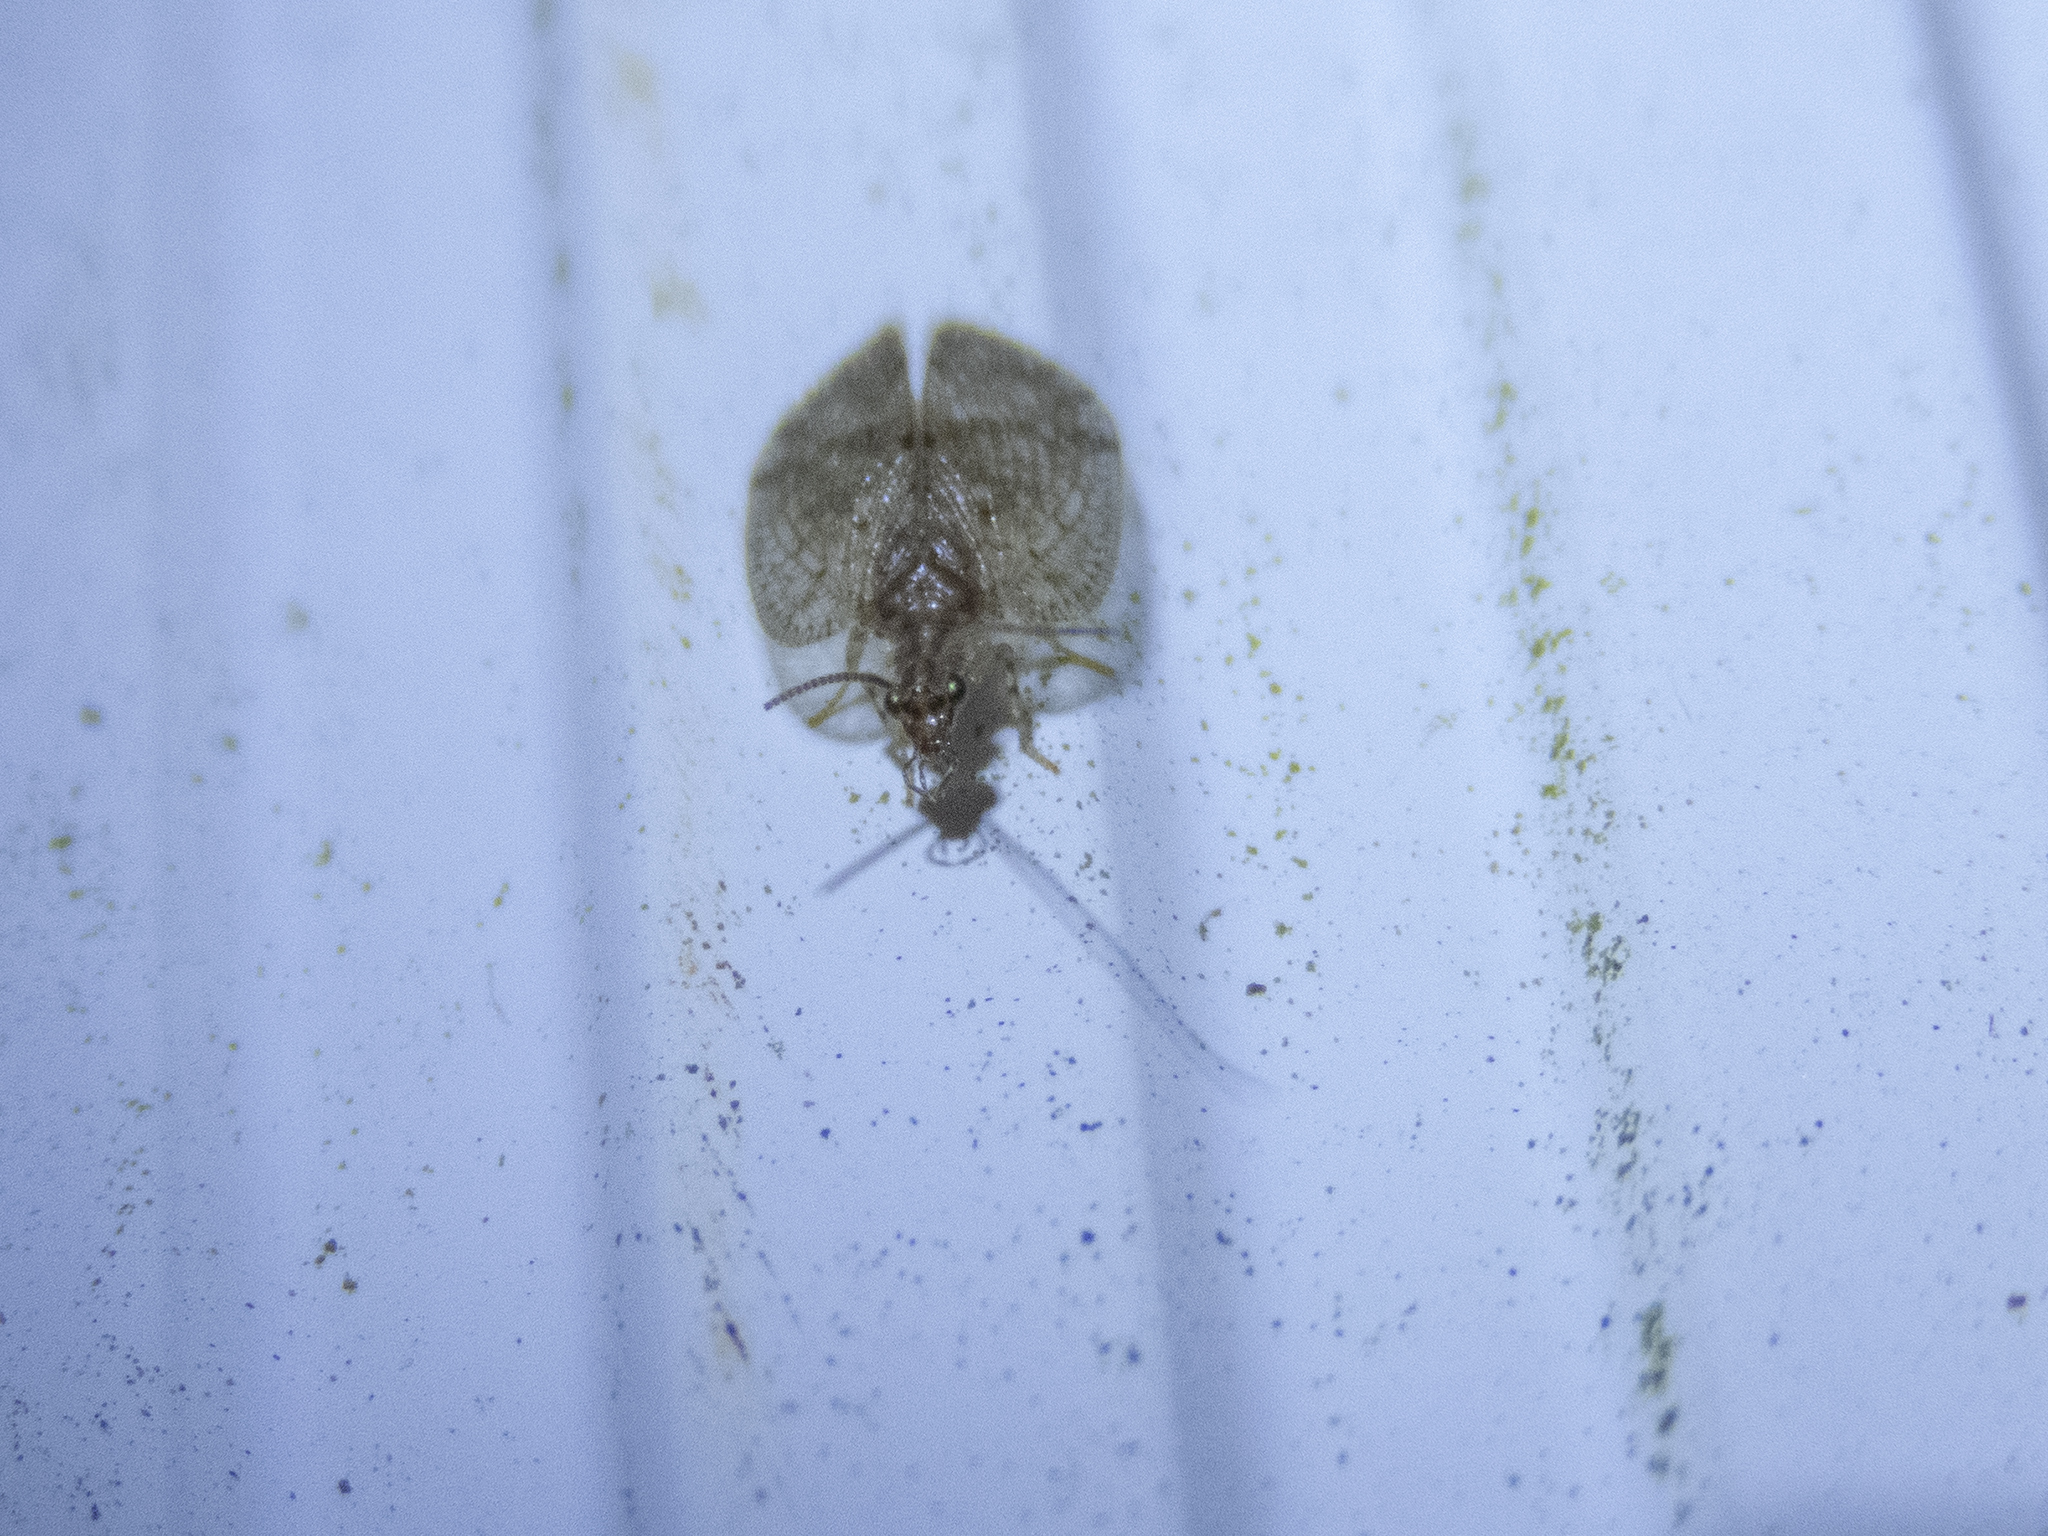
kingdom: Animalia
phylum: Arthropoda
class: Insecta
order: Neuroptera
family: Hemerobiidae
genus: Psectra
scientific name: Psectra nakaharai
